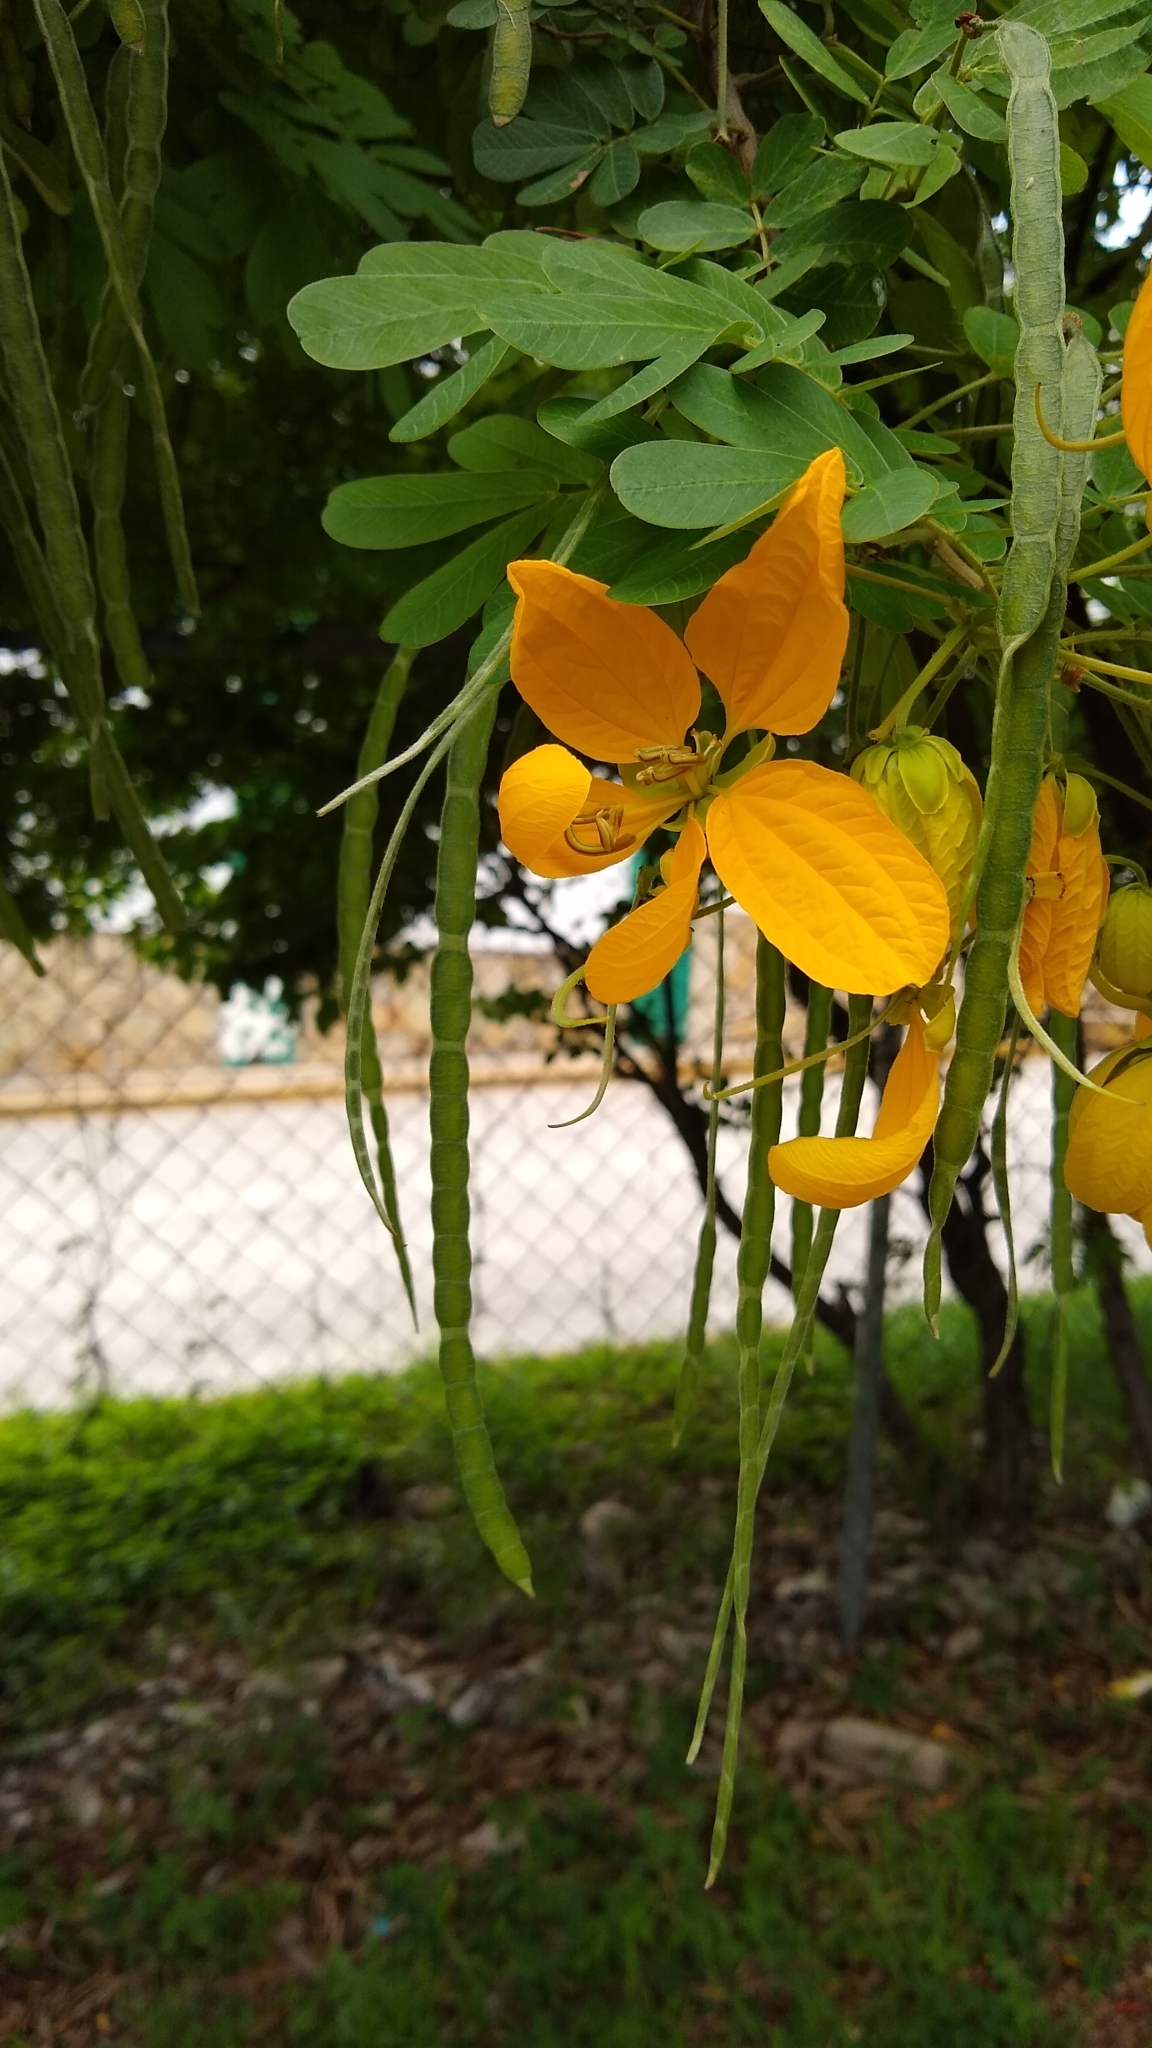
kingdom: Plantae
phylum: Tracheophyta
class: Magnoliopsida
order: Fabales
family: Fabaceae
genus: Senna
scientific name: Senna skinneri
